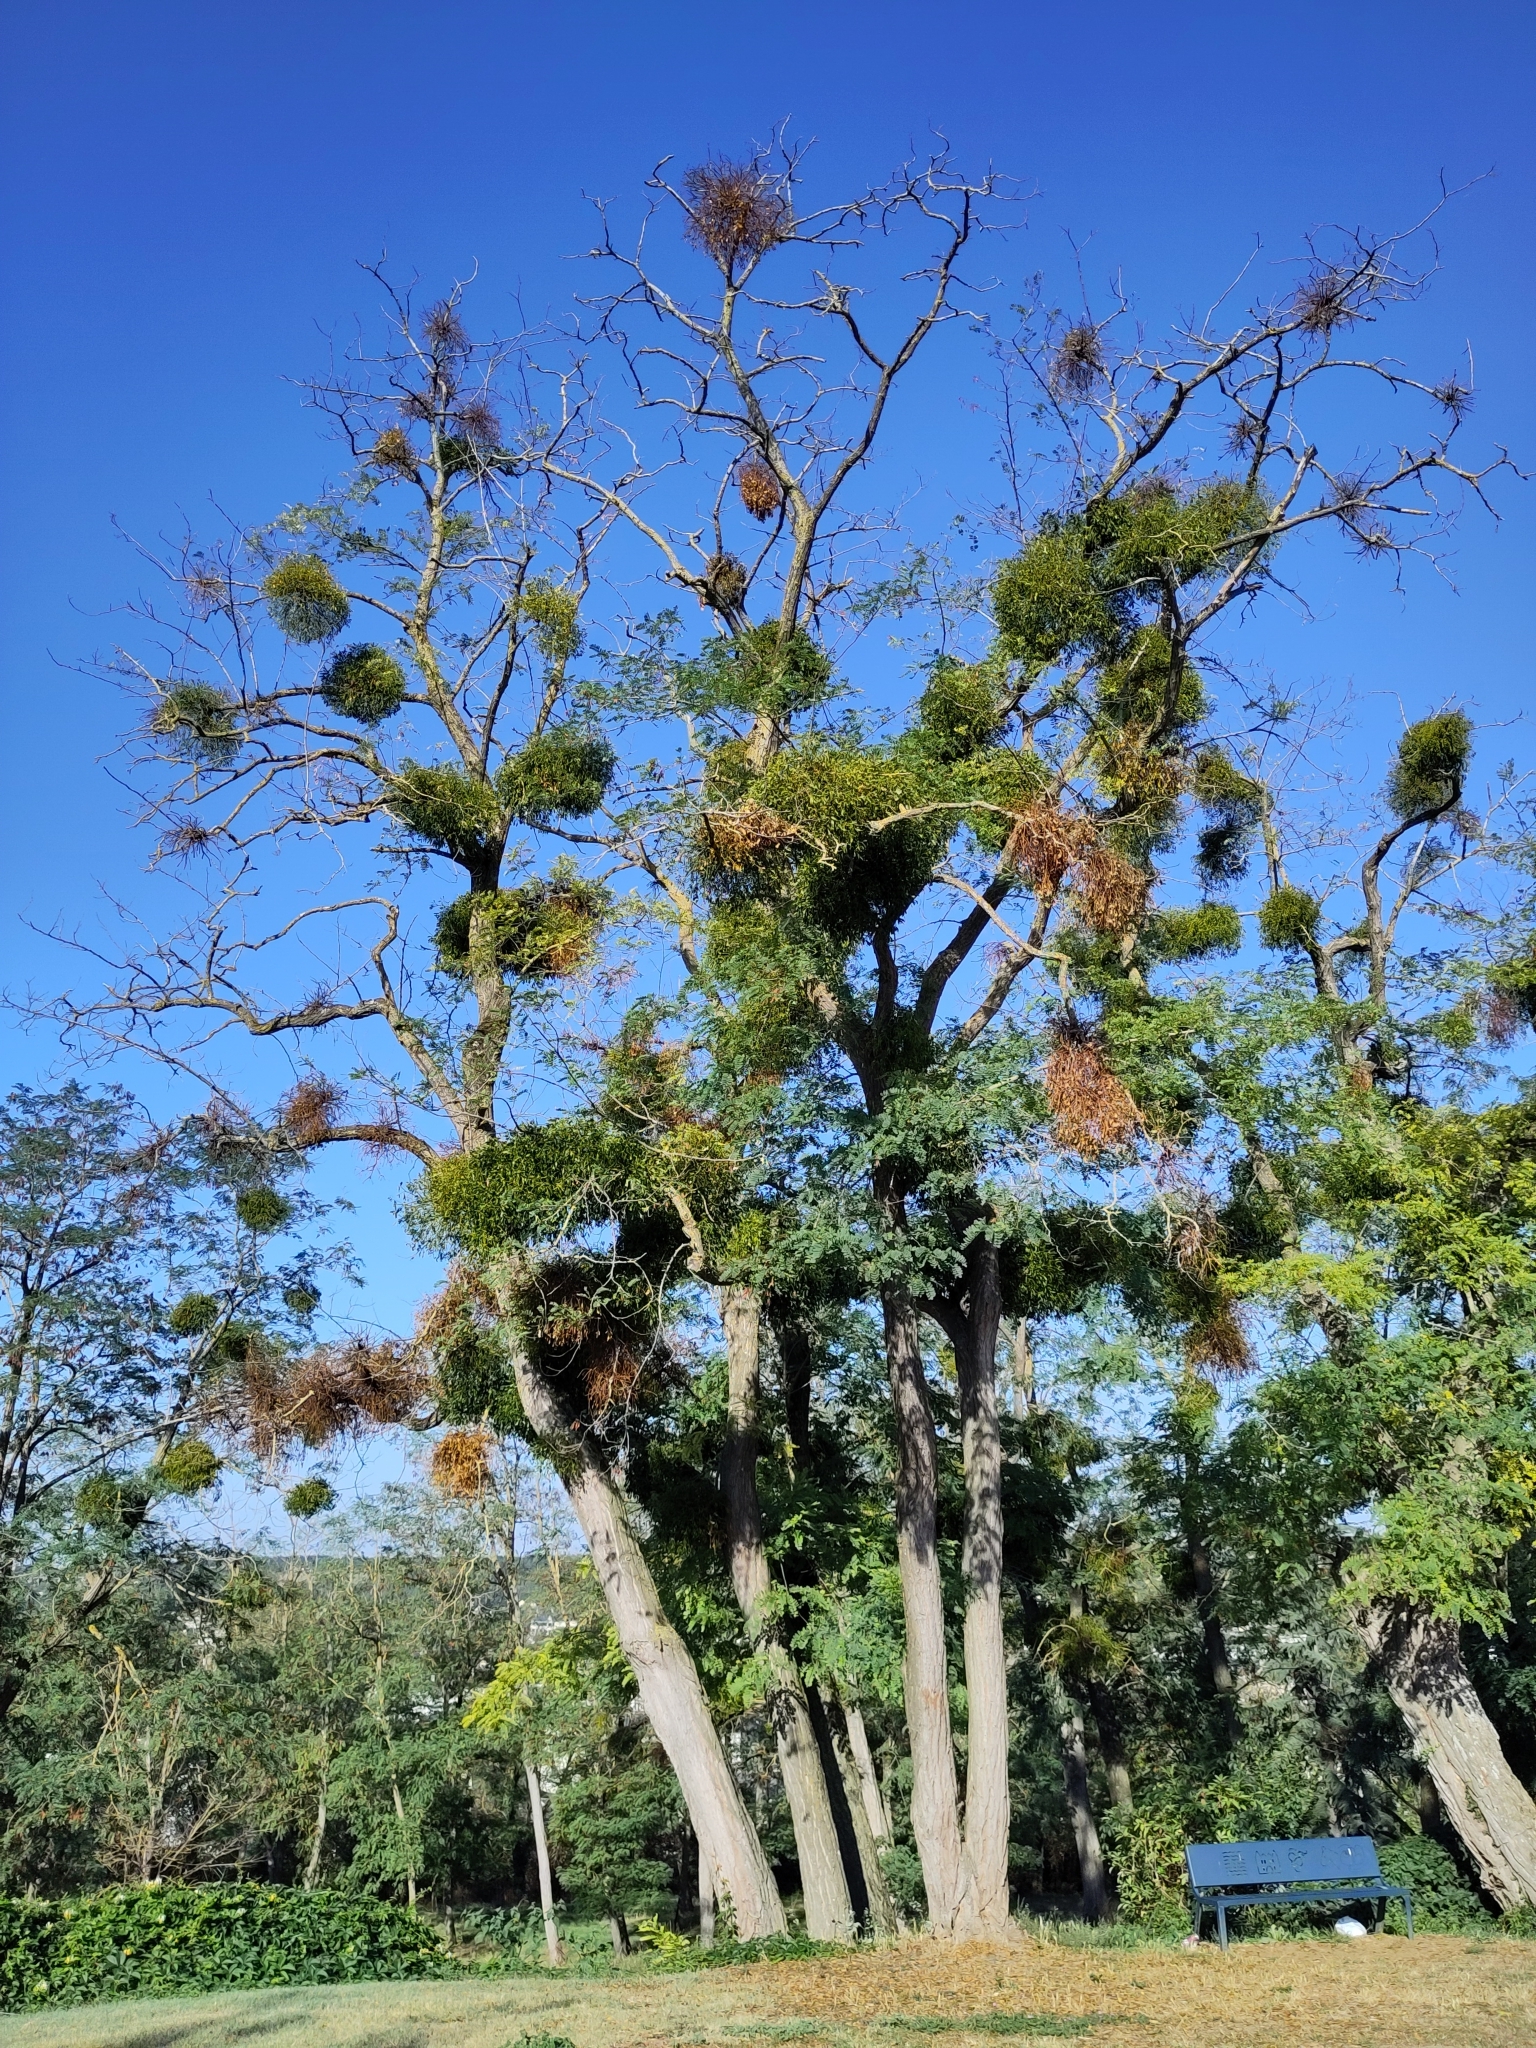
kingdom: Plantae
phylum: Tracheophyta
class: Magnoliopsida
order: Santalales
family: Viscaceae
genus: Viscum
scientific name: Viscum album
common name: Mistletoe
